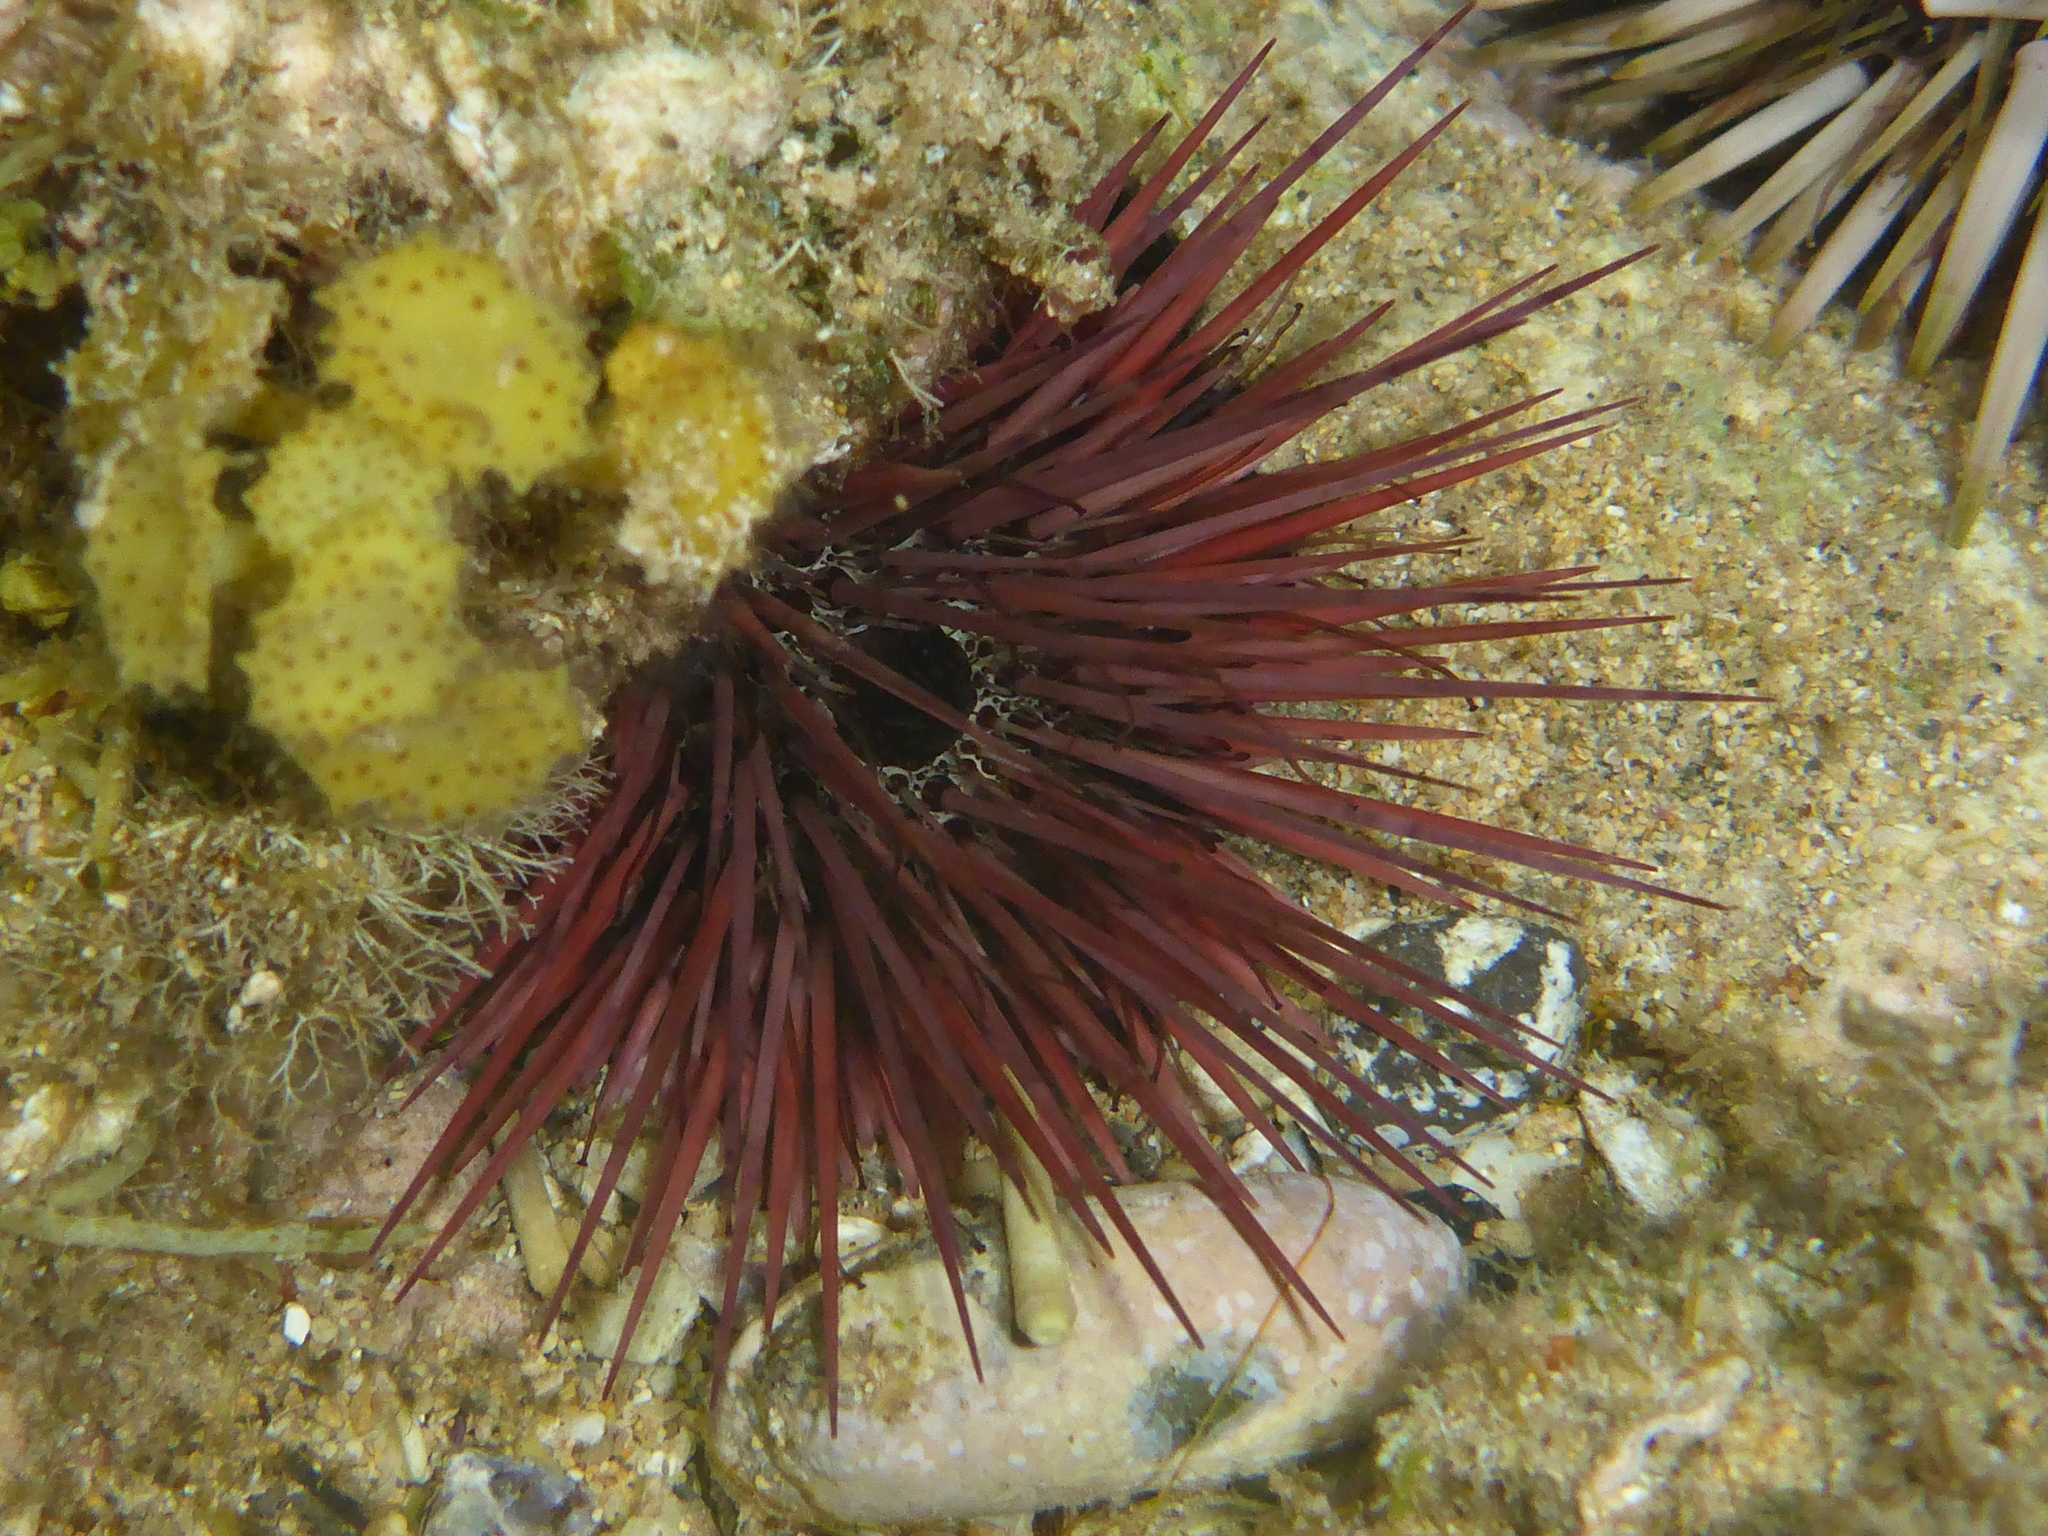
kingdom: Animalia
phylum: Echinodermata
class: Echinoidea
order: Camarodonta
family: Echinometridae
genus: Echinostrephus
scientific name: Echinostrephus aciculatus
